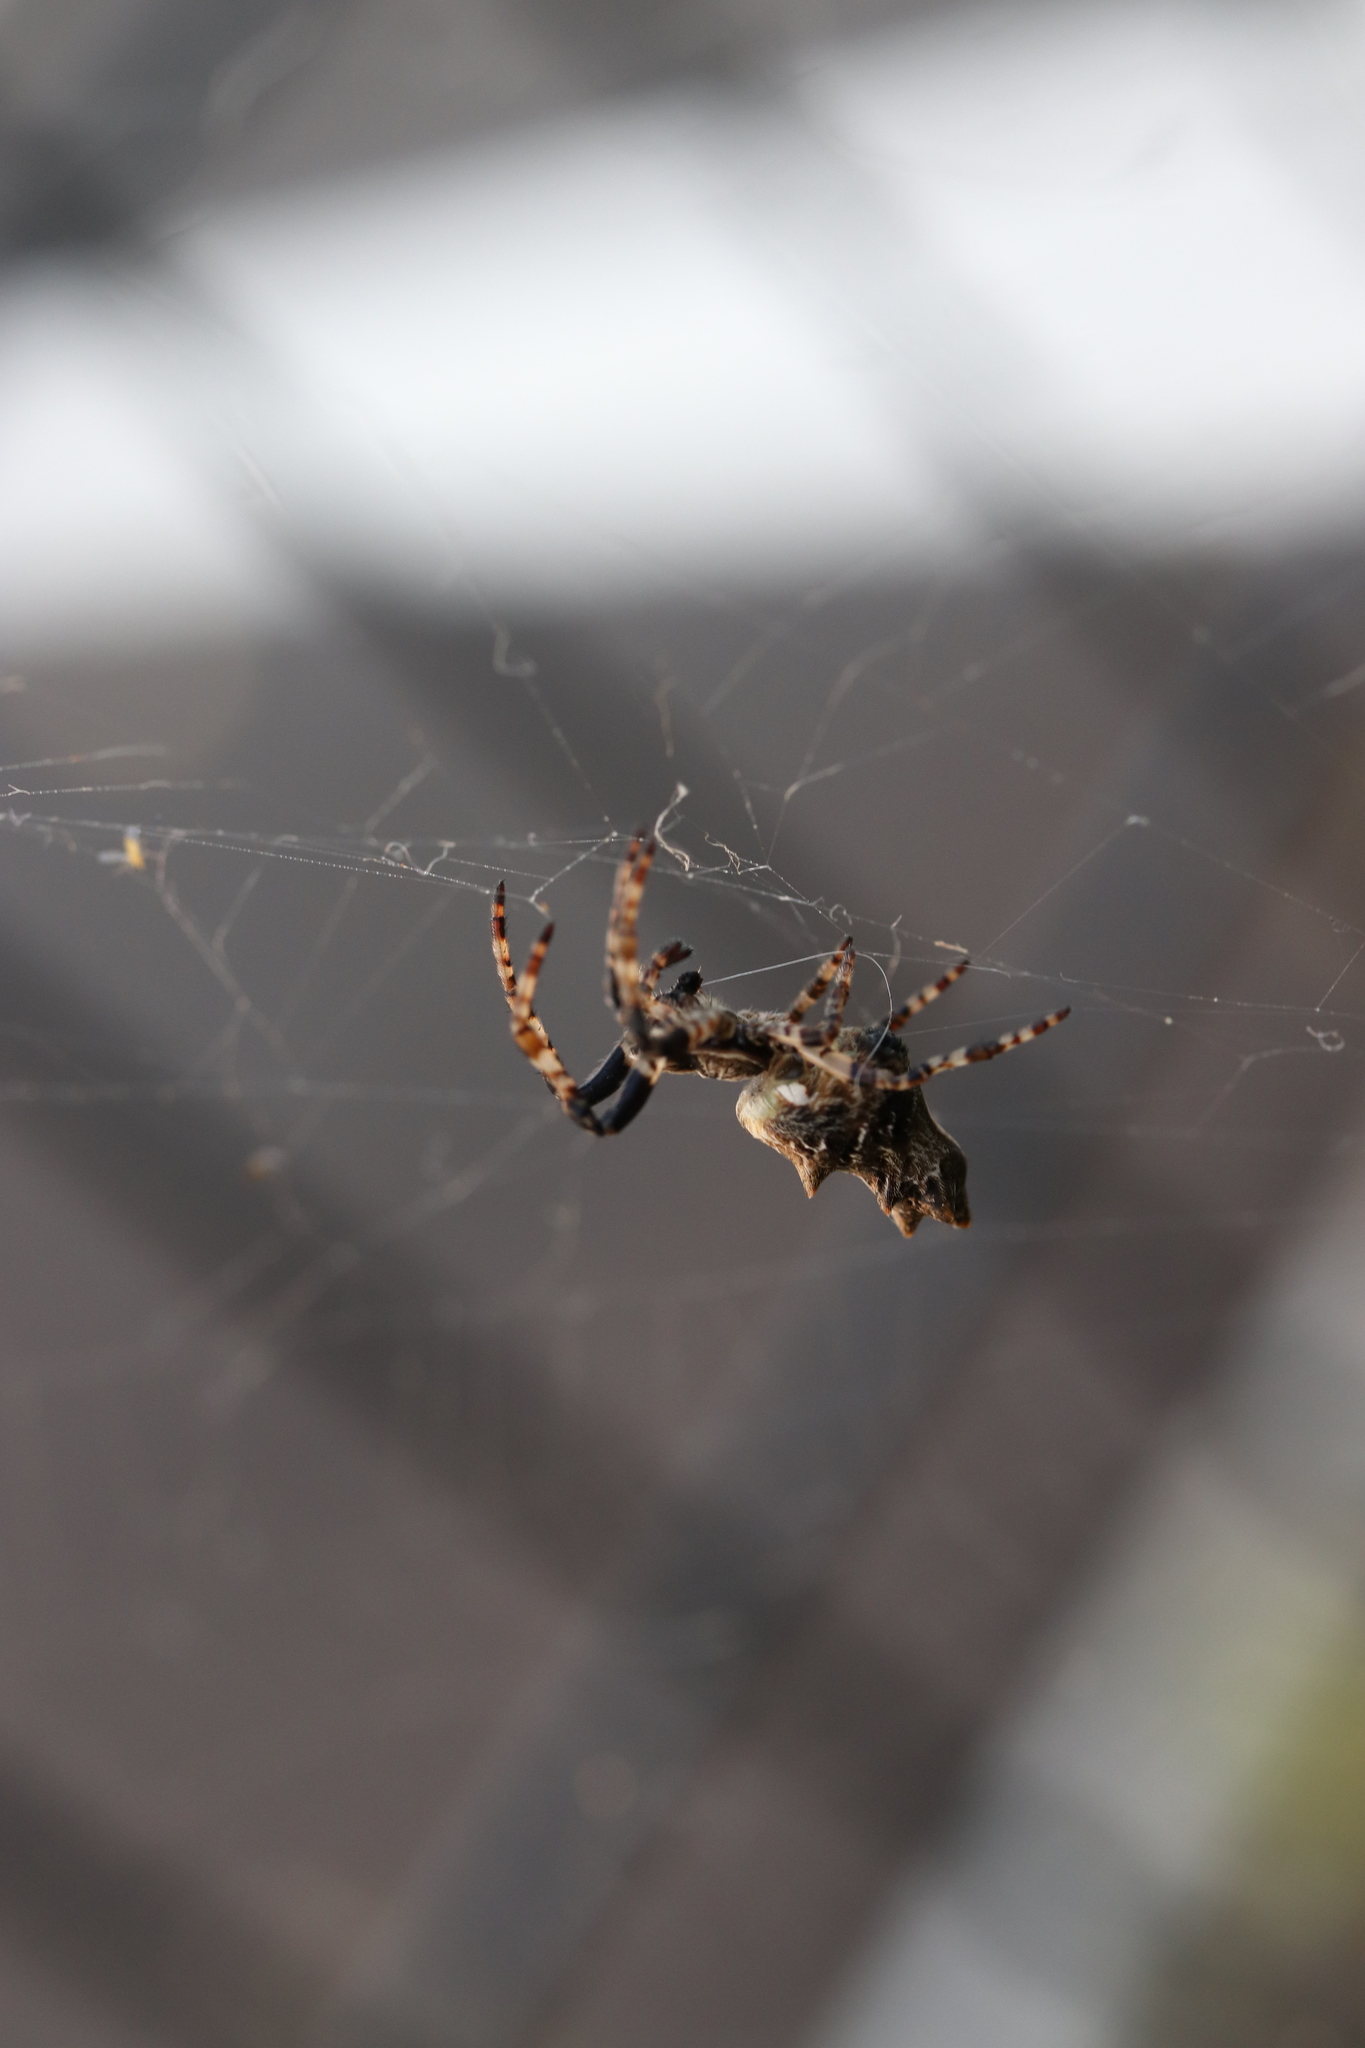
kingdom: Animalia
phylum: Arthropoda
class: Arachnida
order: Araneae
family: Araneidae
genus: Cyclosa
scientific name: Cyclosa octotuberculata
